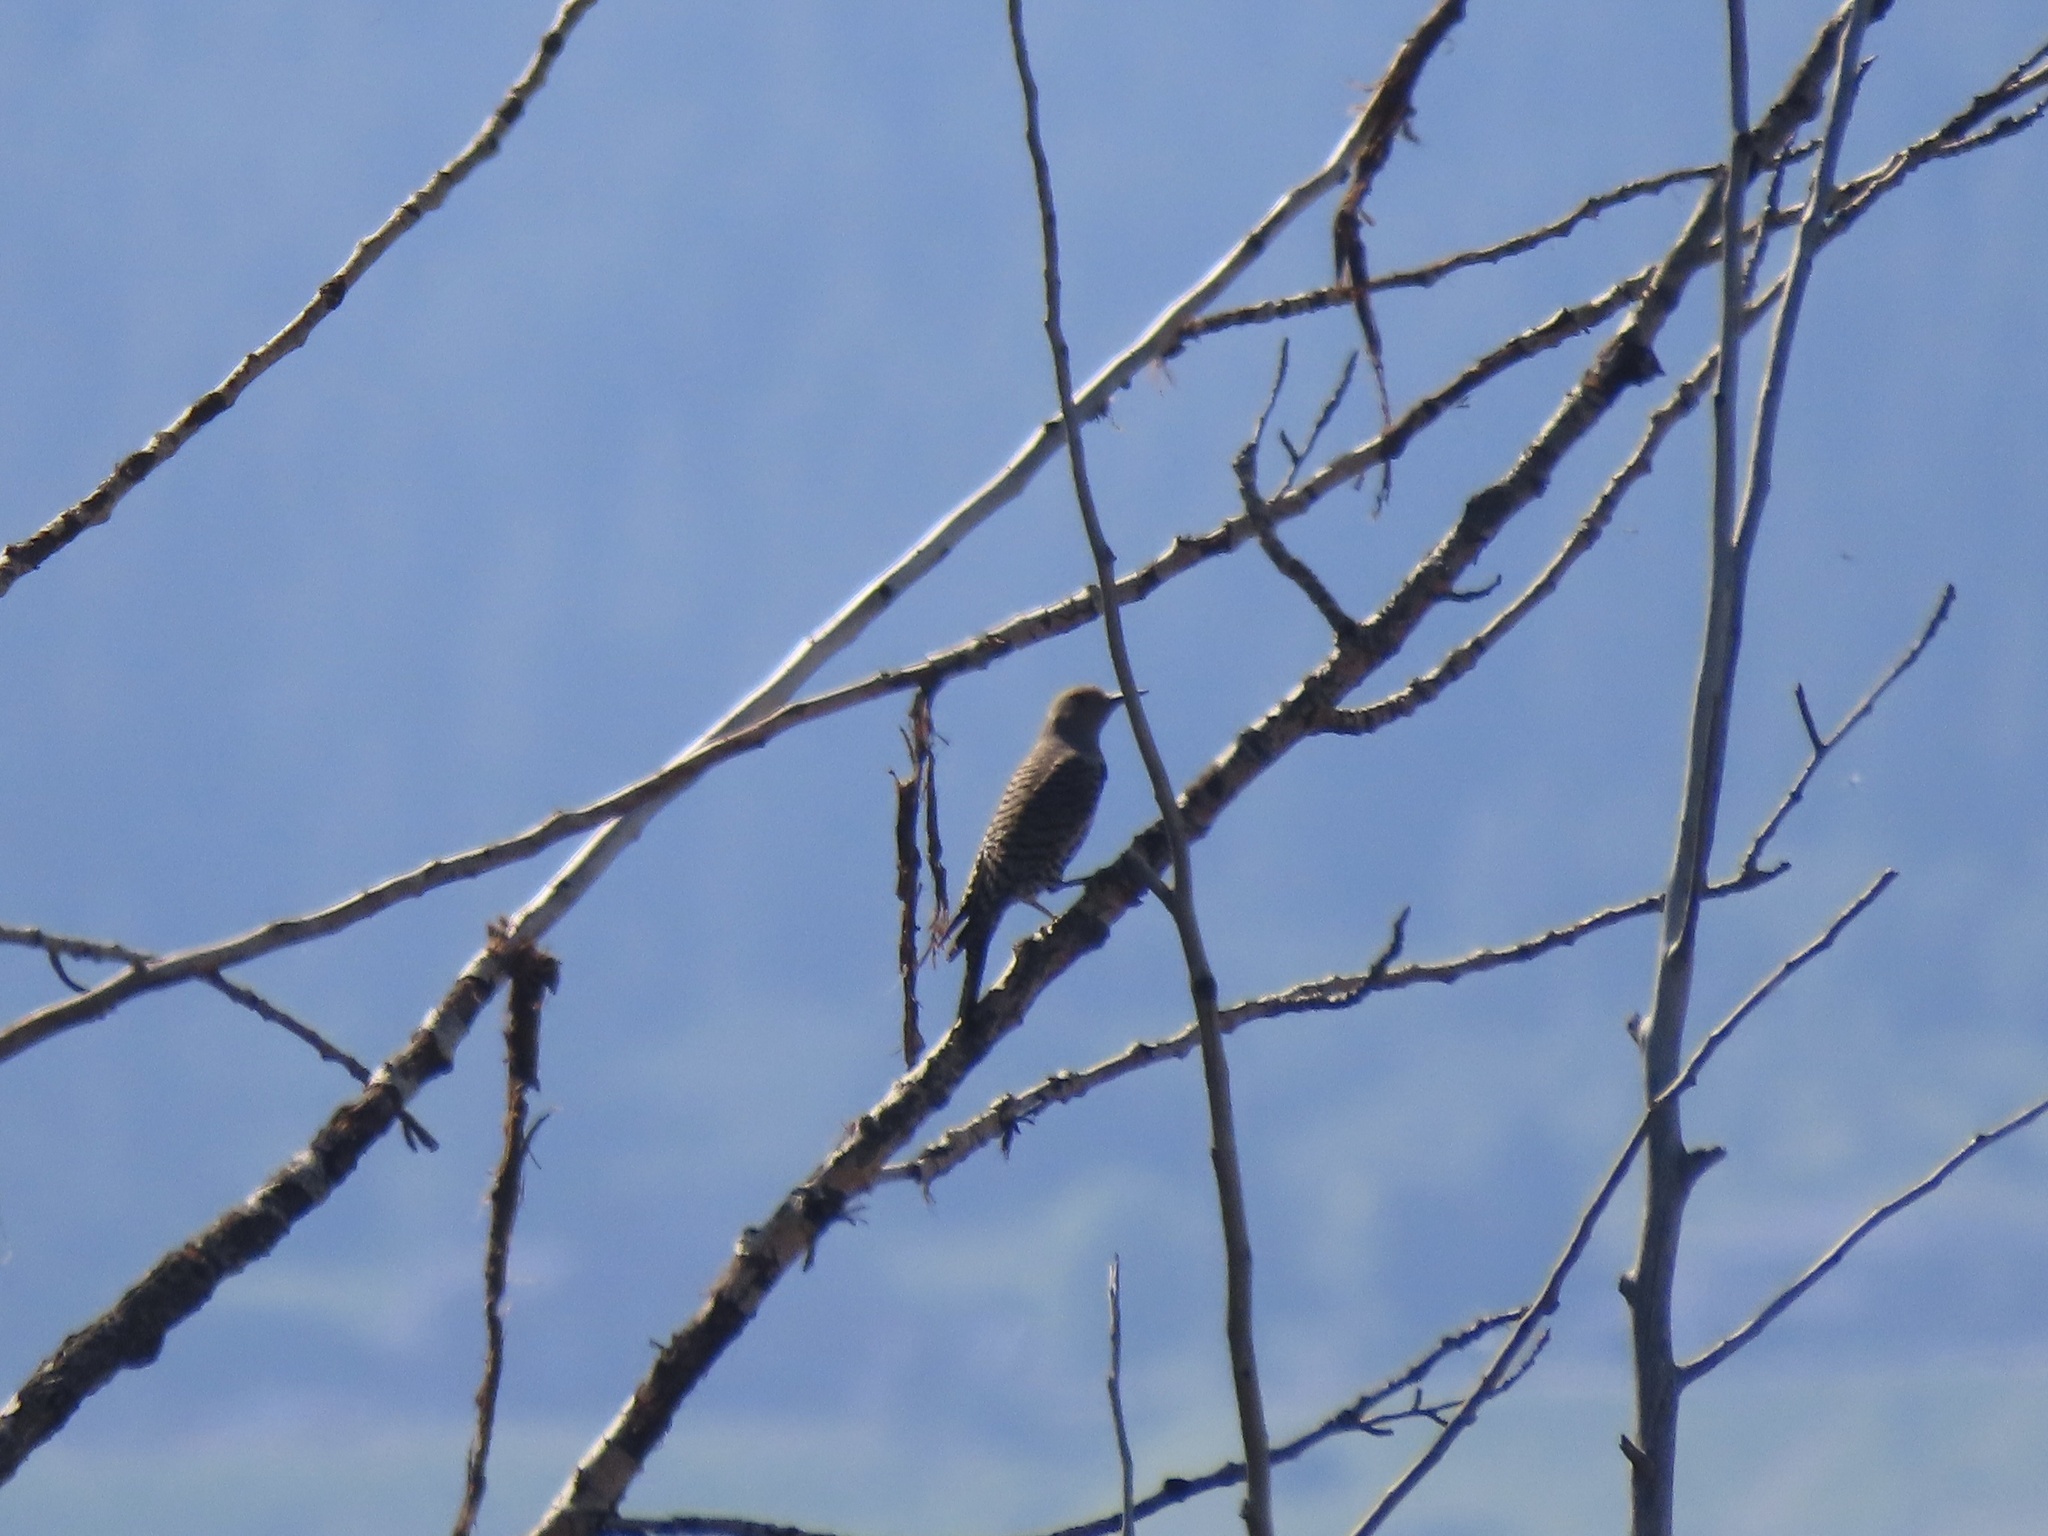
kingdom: Animalia
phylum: Chordata
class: Aves
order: Piciformes
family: Picidae
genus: Colaptes
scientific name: Colaptes auratus
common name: Northern flicker
